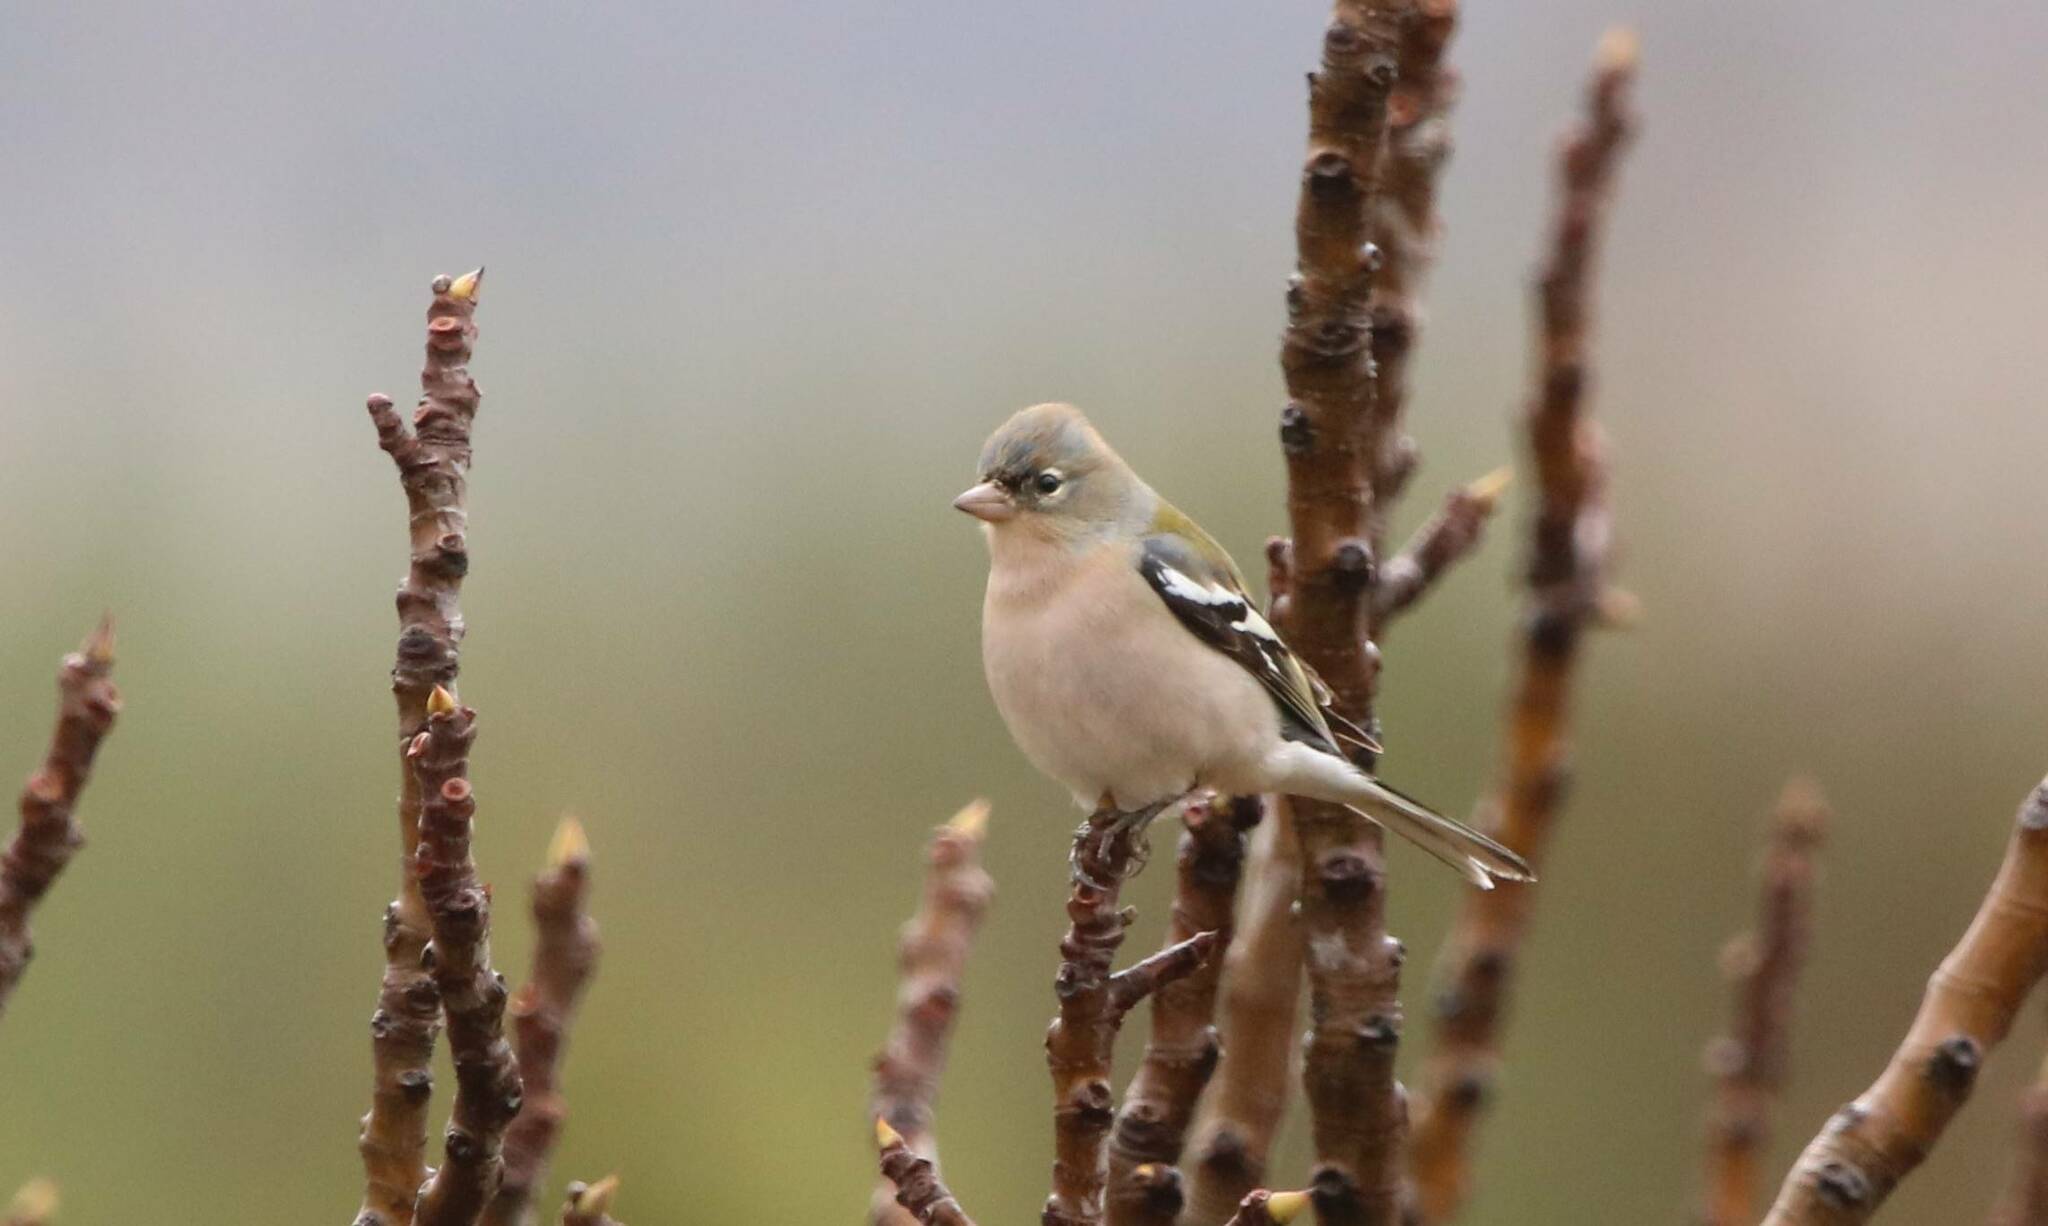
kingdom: Animalia
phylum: Chordata
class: Aves
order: Passeriformes
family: Fringillidae
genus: Fringilla
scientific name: Fringilla spodiogenys
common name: African chaffinch
